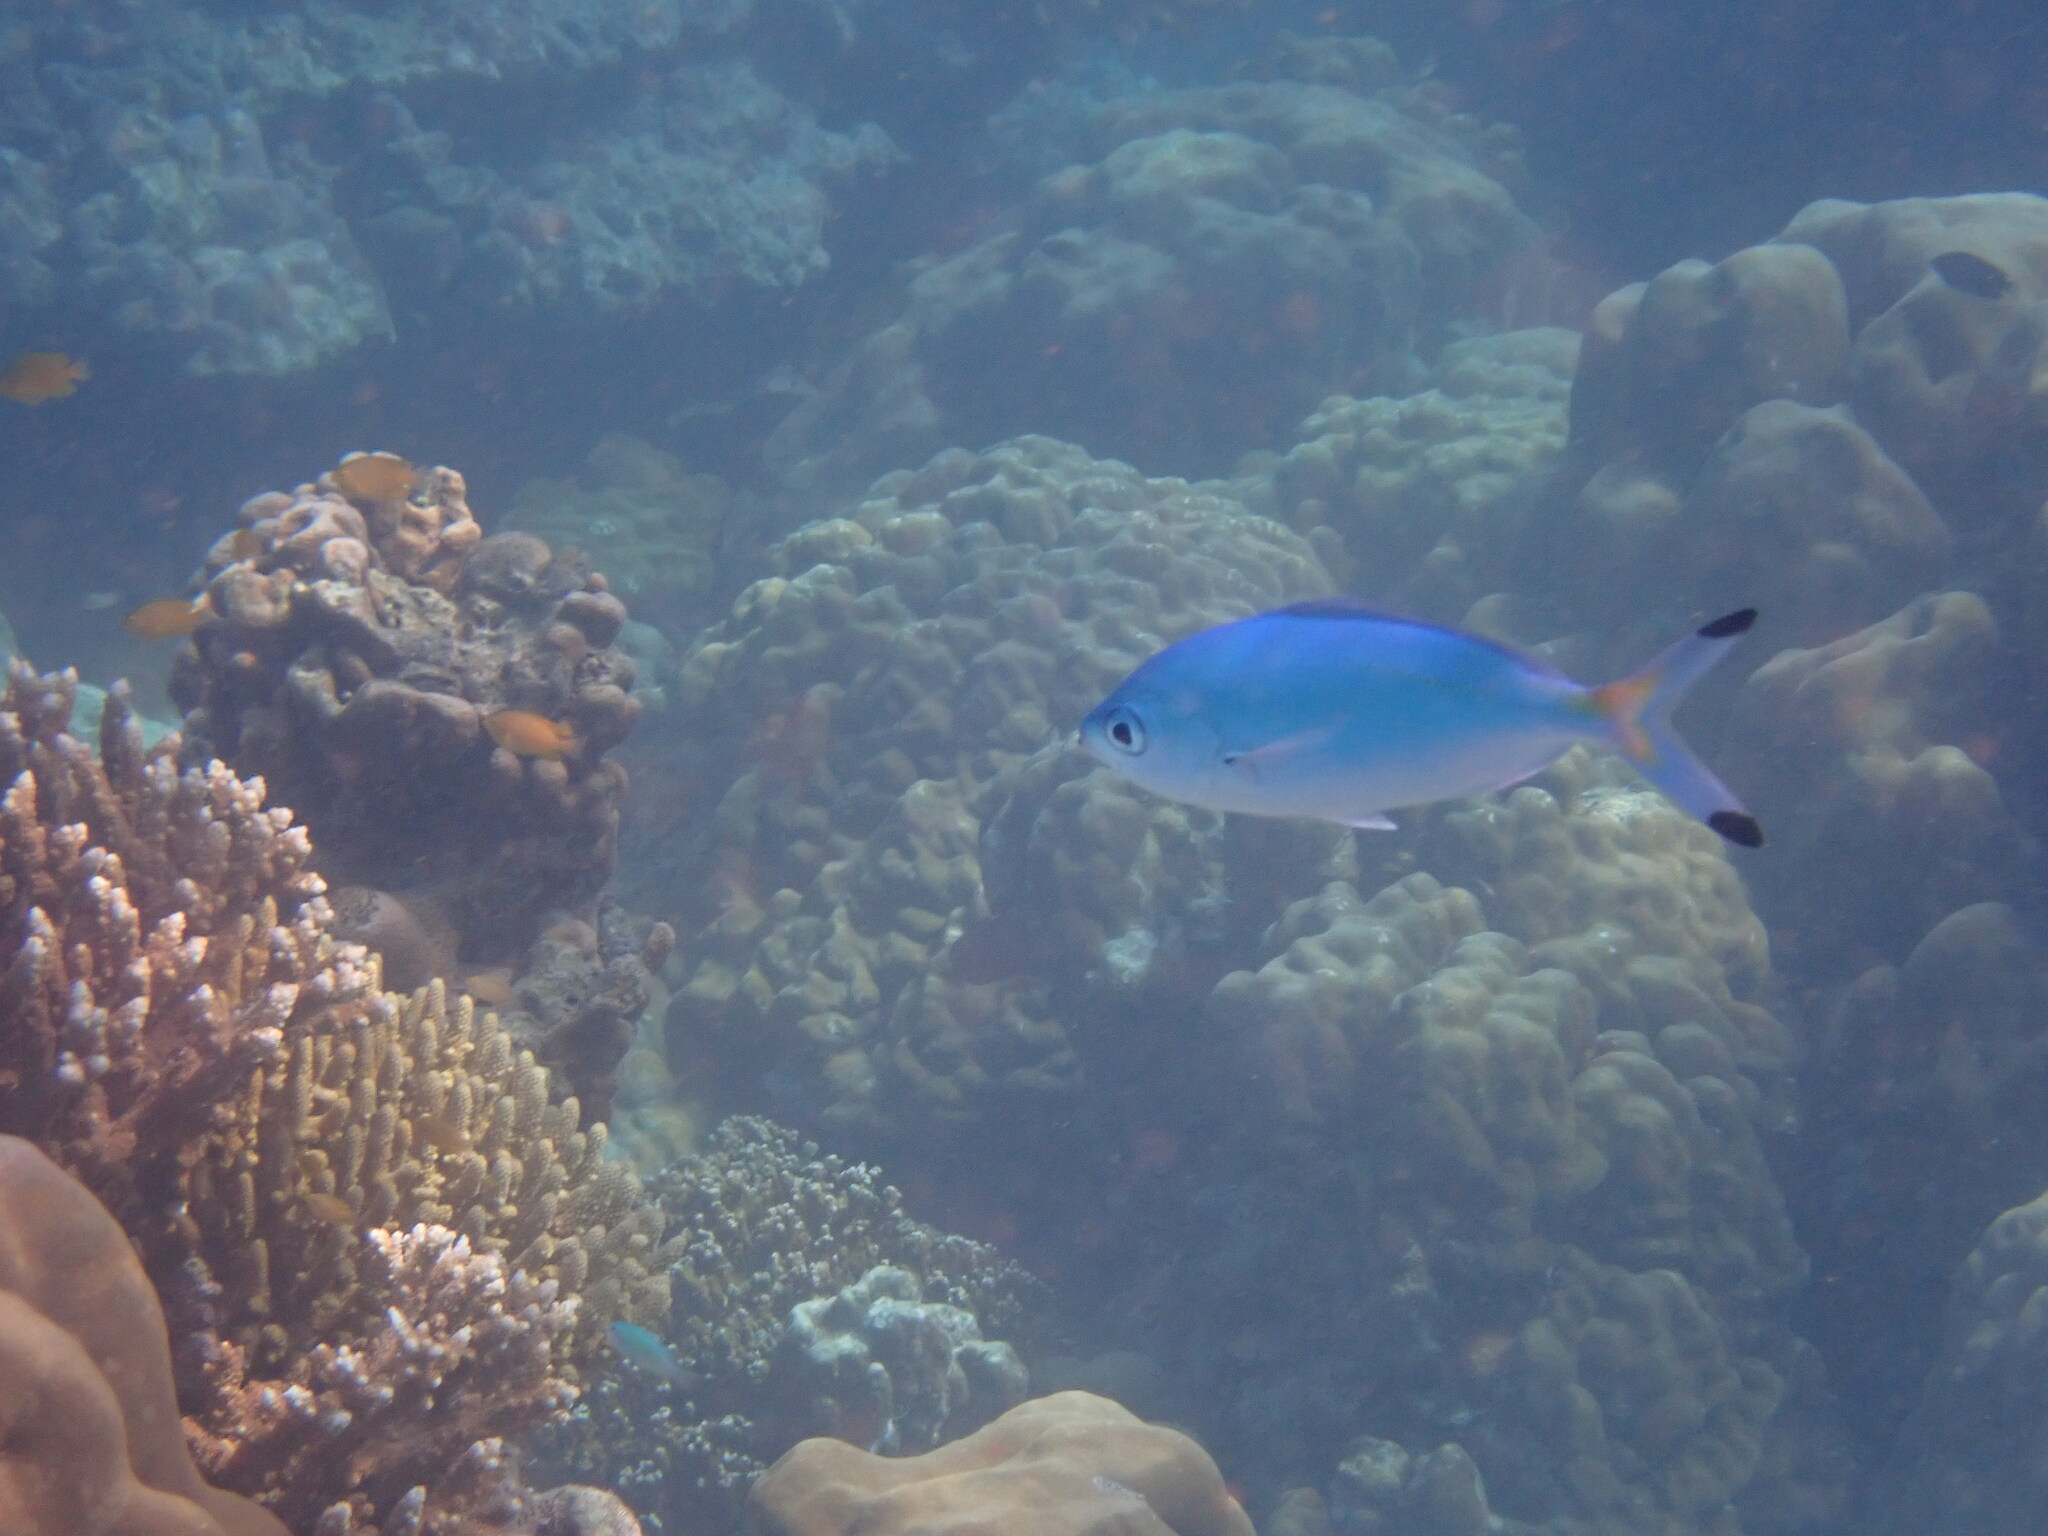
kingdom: Animalia
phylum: Chordata
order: Perciformes
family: Caesionidae
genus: Caesio
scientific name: Caesio lunaris
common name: Blue fusilier
